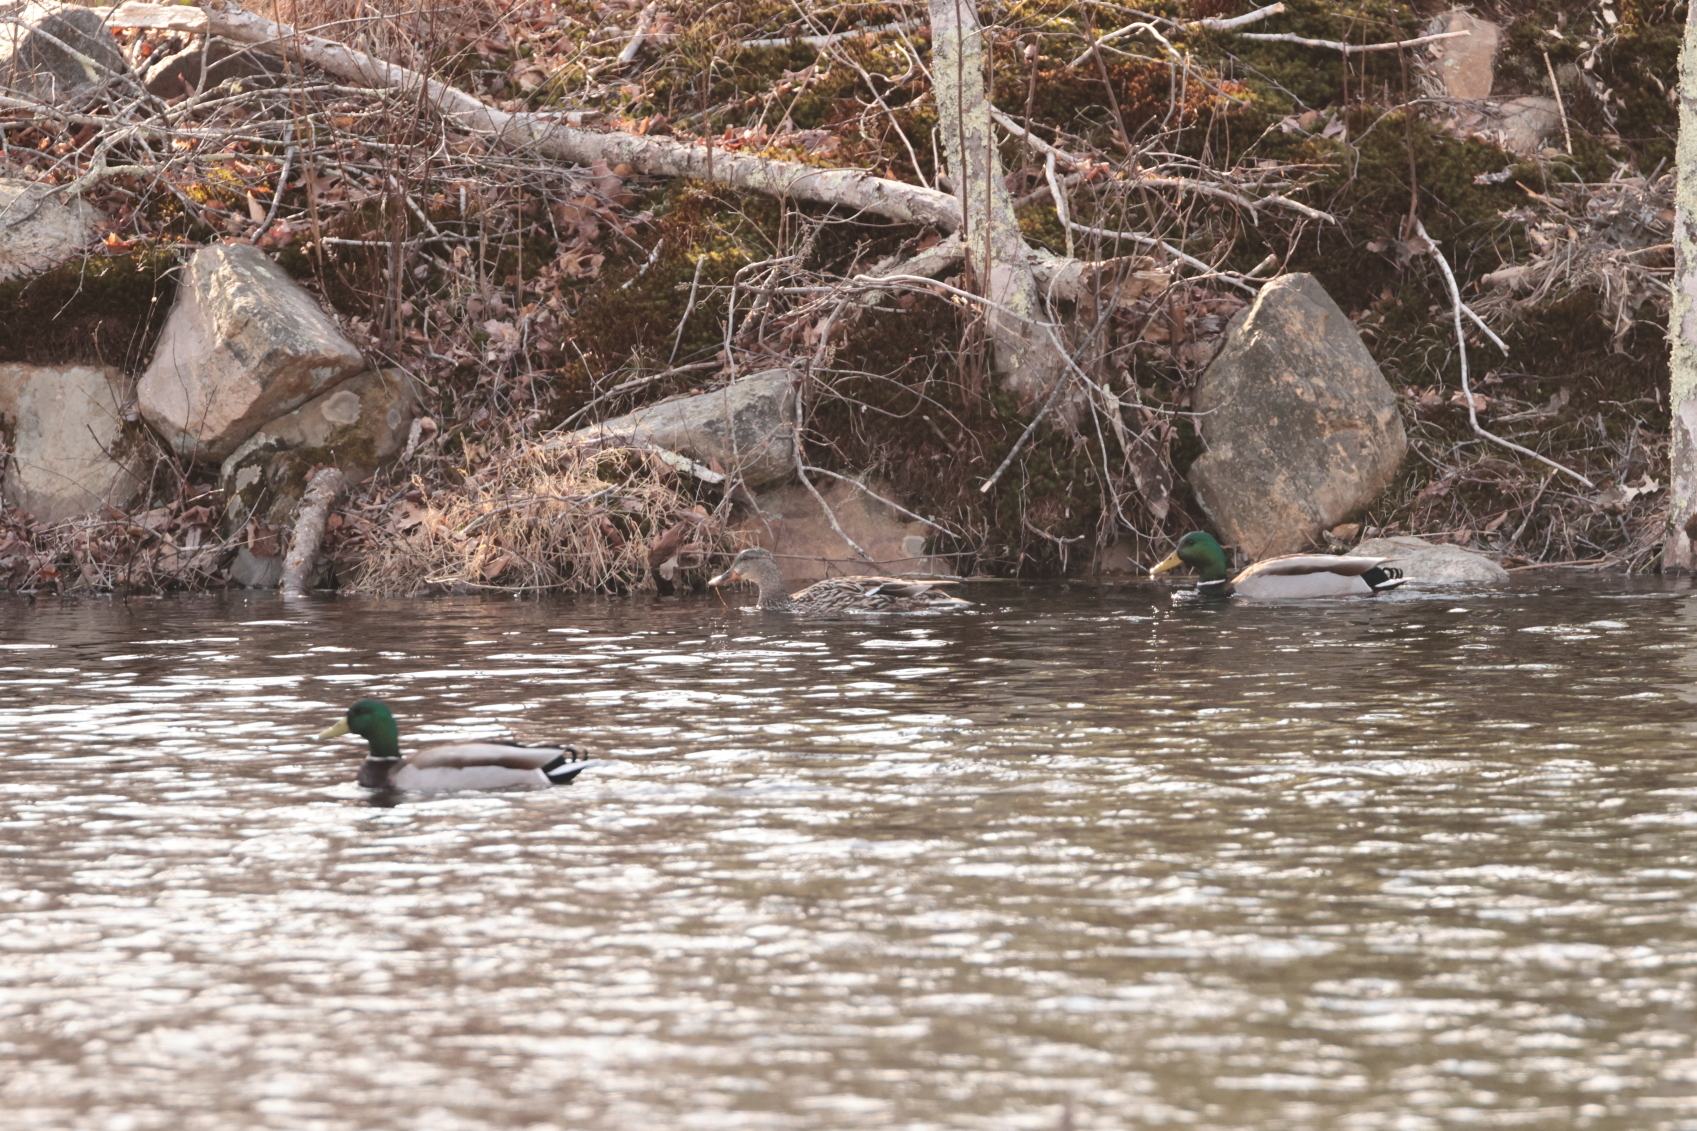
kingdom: Animalia
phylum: Chordata
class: Aves
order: Anseriformes
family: Anatidae
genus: Anas
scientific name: Anas platyrhynchos
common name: Mallard
